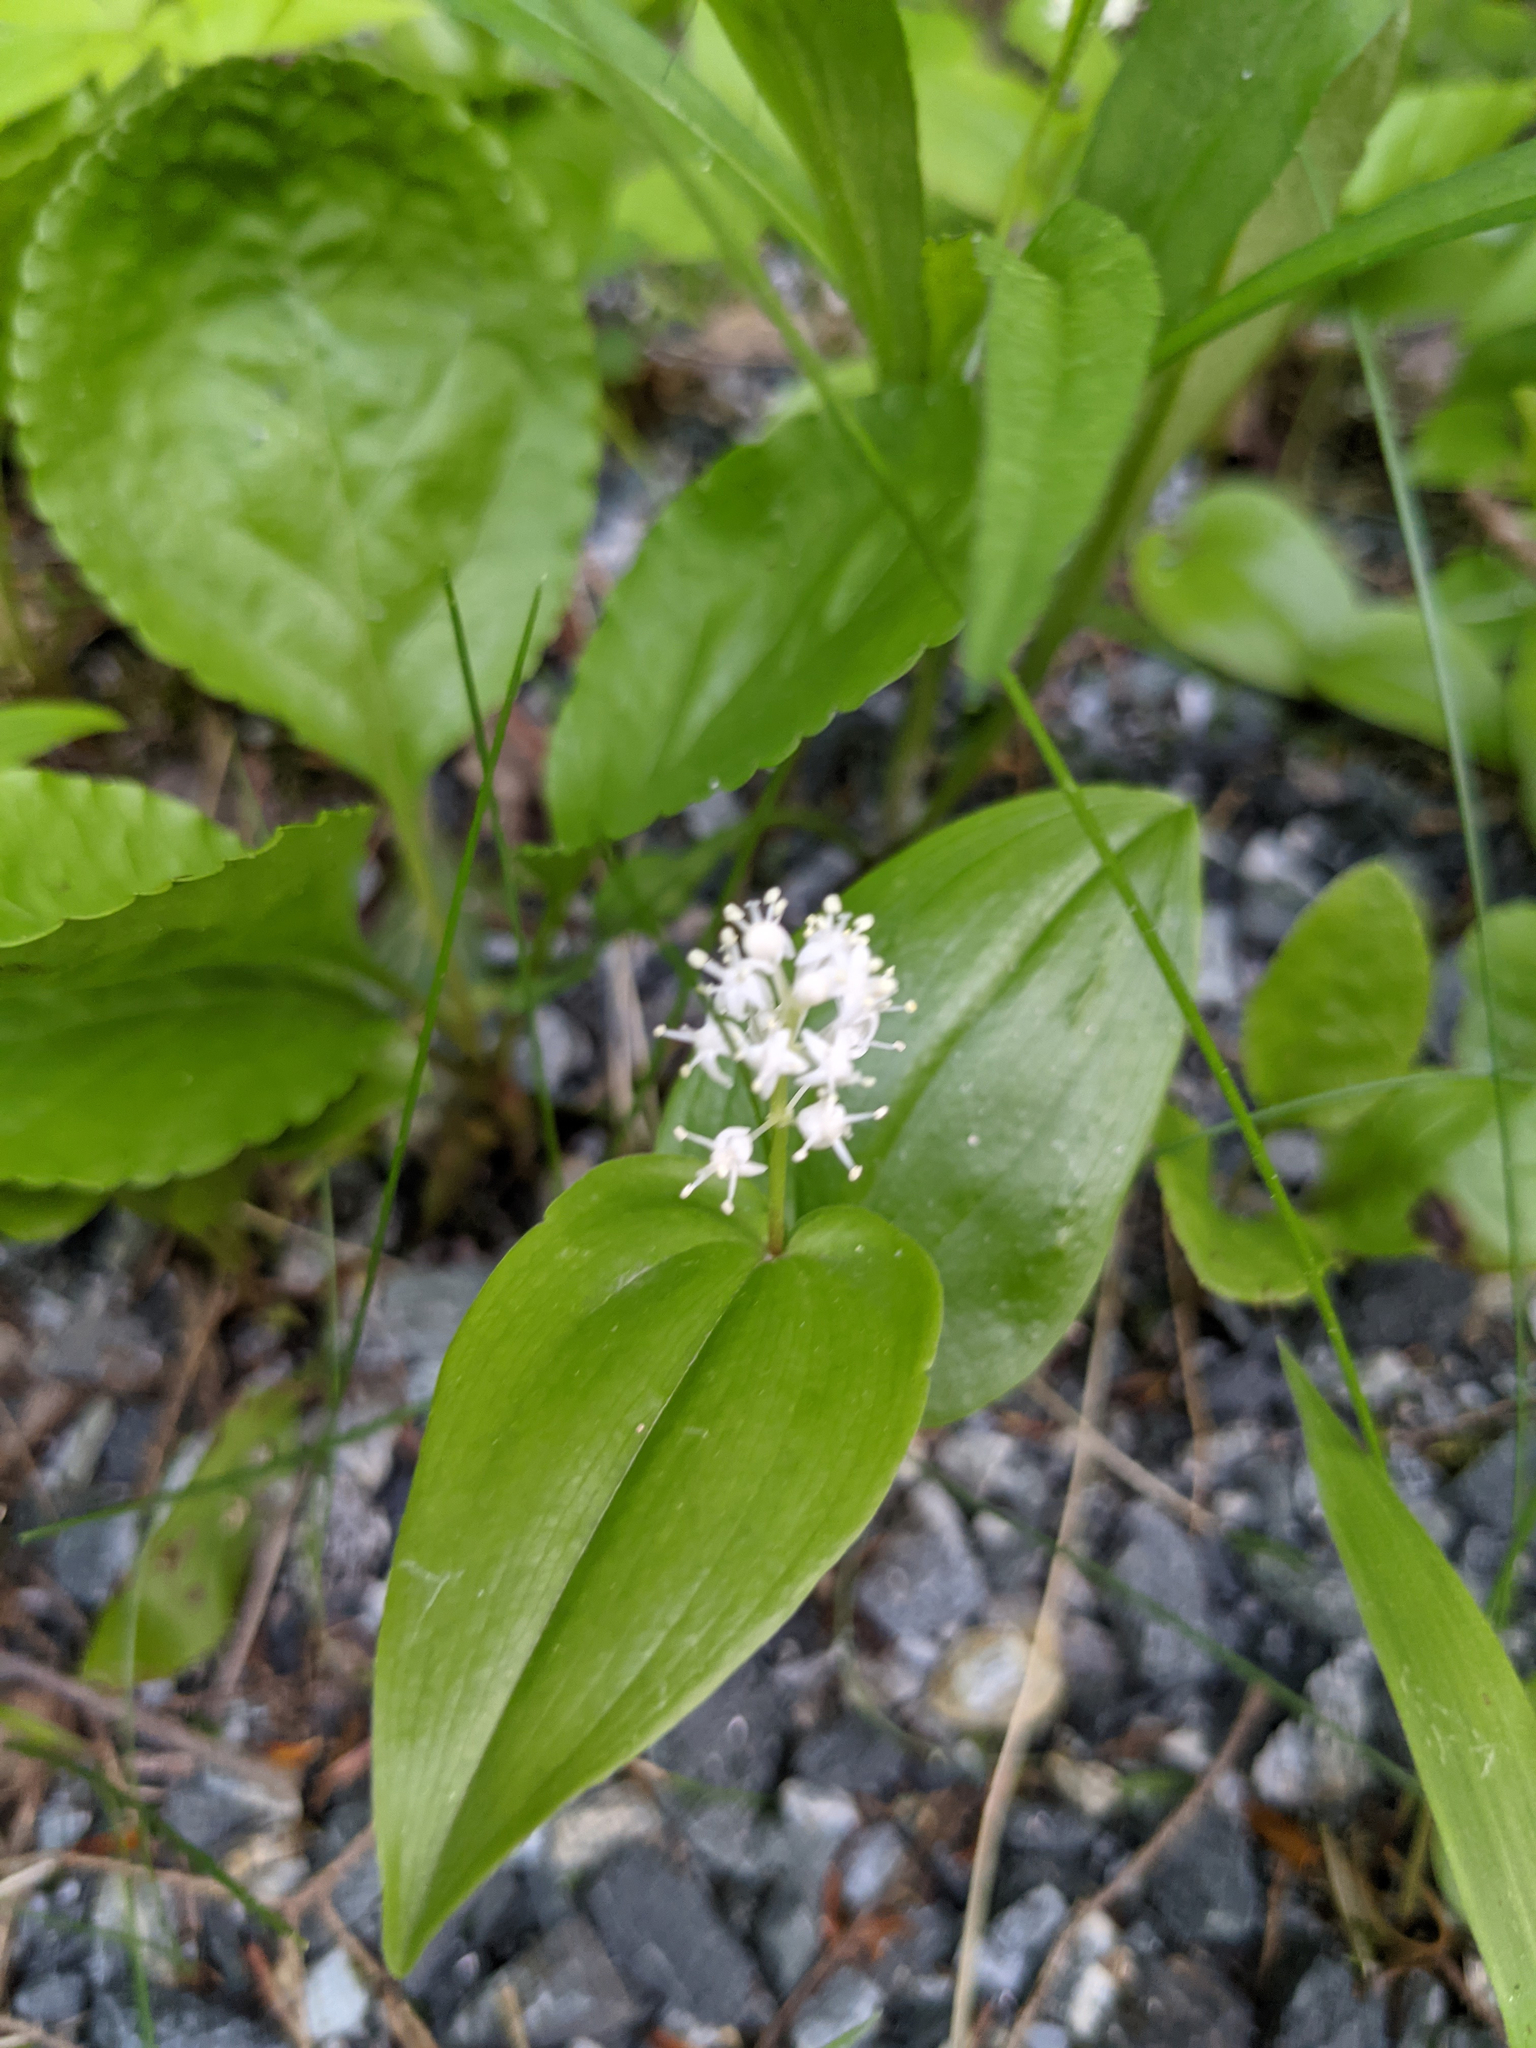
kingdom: Plantae
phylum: Tracheophyta
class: Liliopsida
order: Asparagales
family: Asparagaceae
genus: Maianthemum
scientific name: Maianthemum canadense
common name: False lily-of-the-valley
